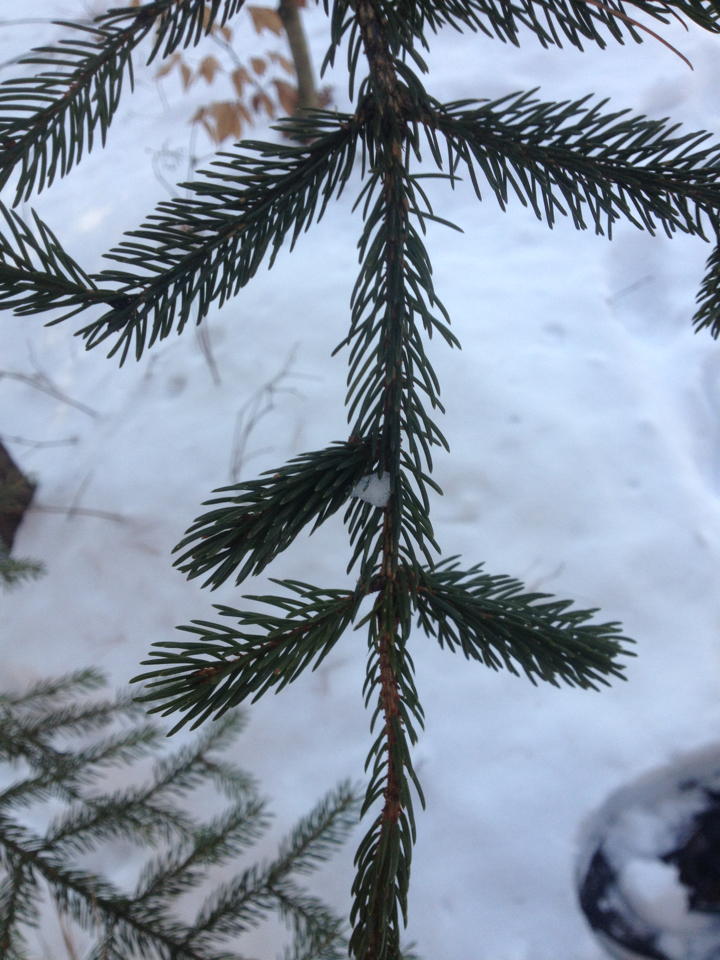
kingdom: Plantae
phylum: Tracheophyta
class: Pinopsida
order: Pinales
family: Pinaceae
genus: Picea
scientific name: Picea rubens
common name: Red spruce
